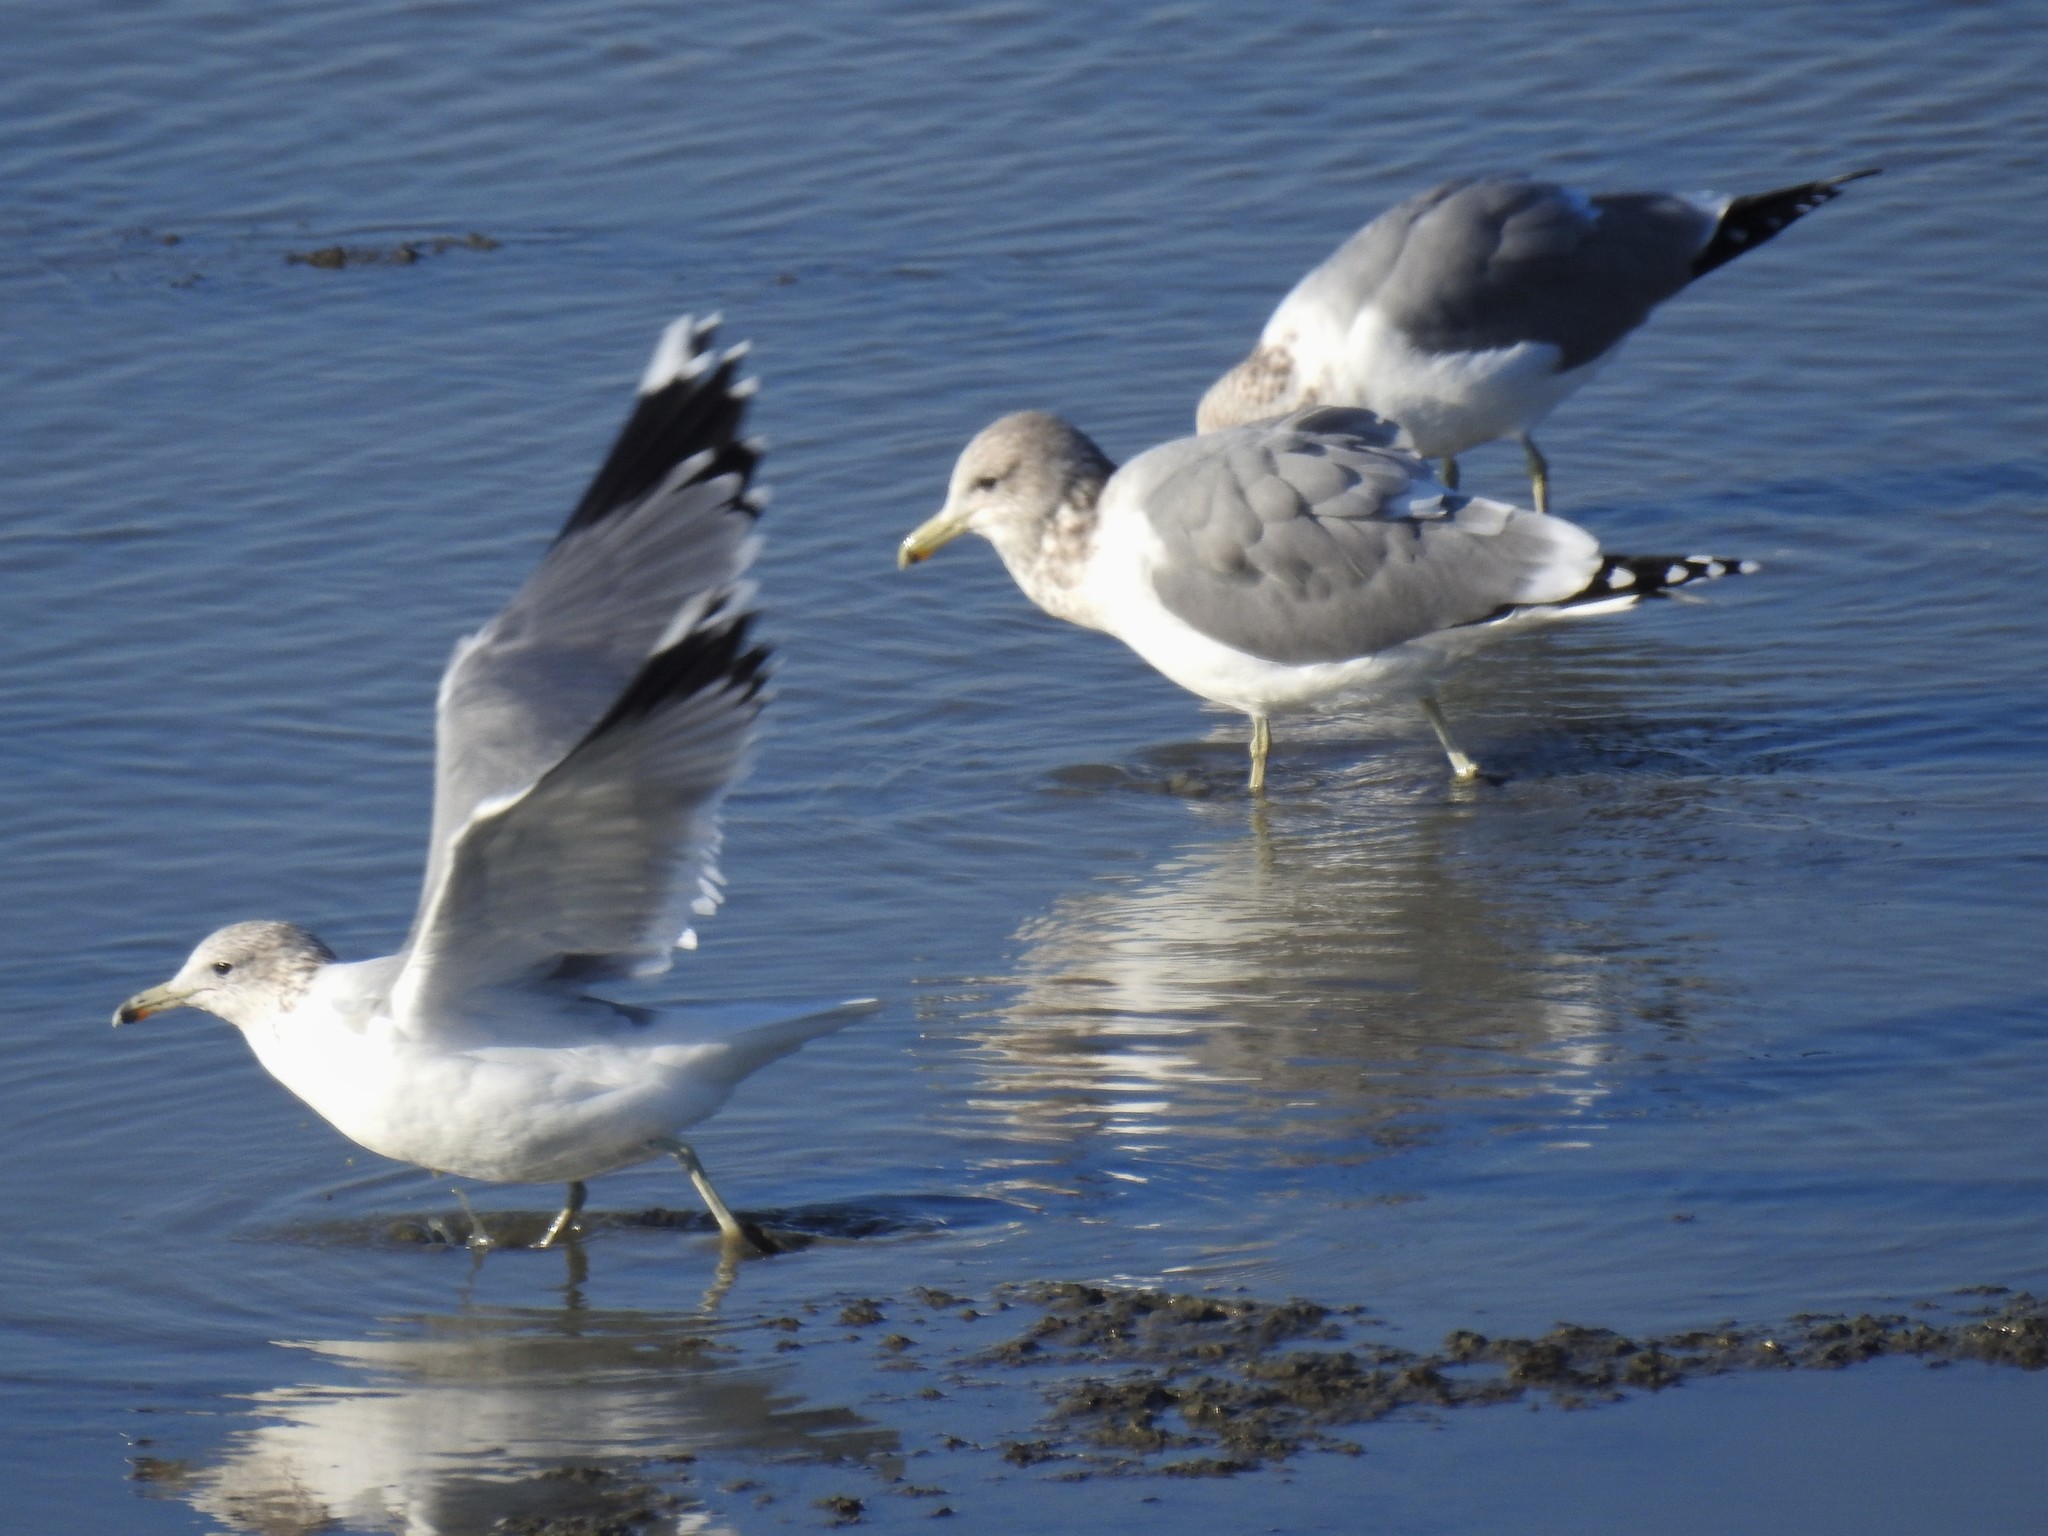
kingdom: Animalia
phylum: Chordata
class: Aves
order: Charadriiformes
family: Laridae
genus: Larus
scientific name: Larus californicus
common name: California gull
